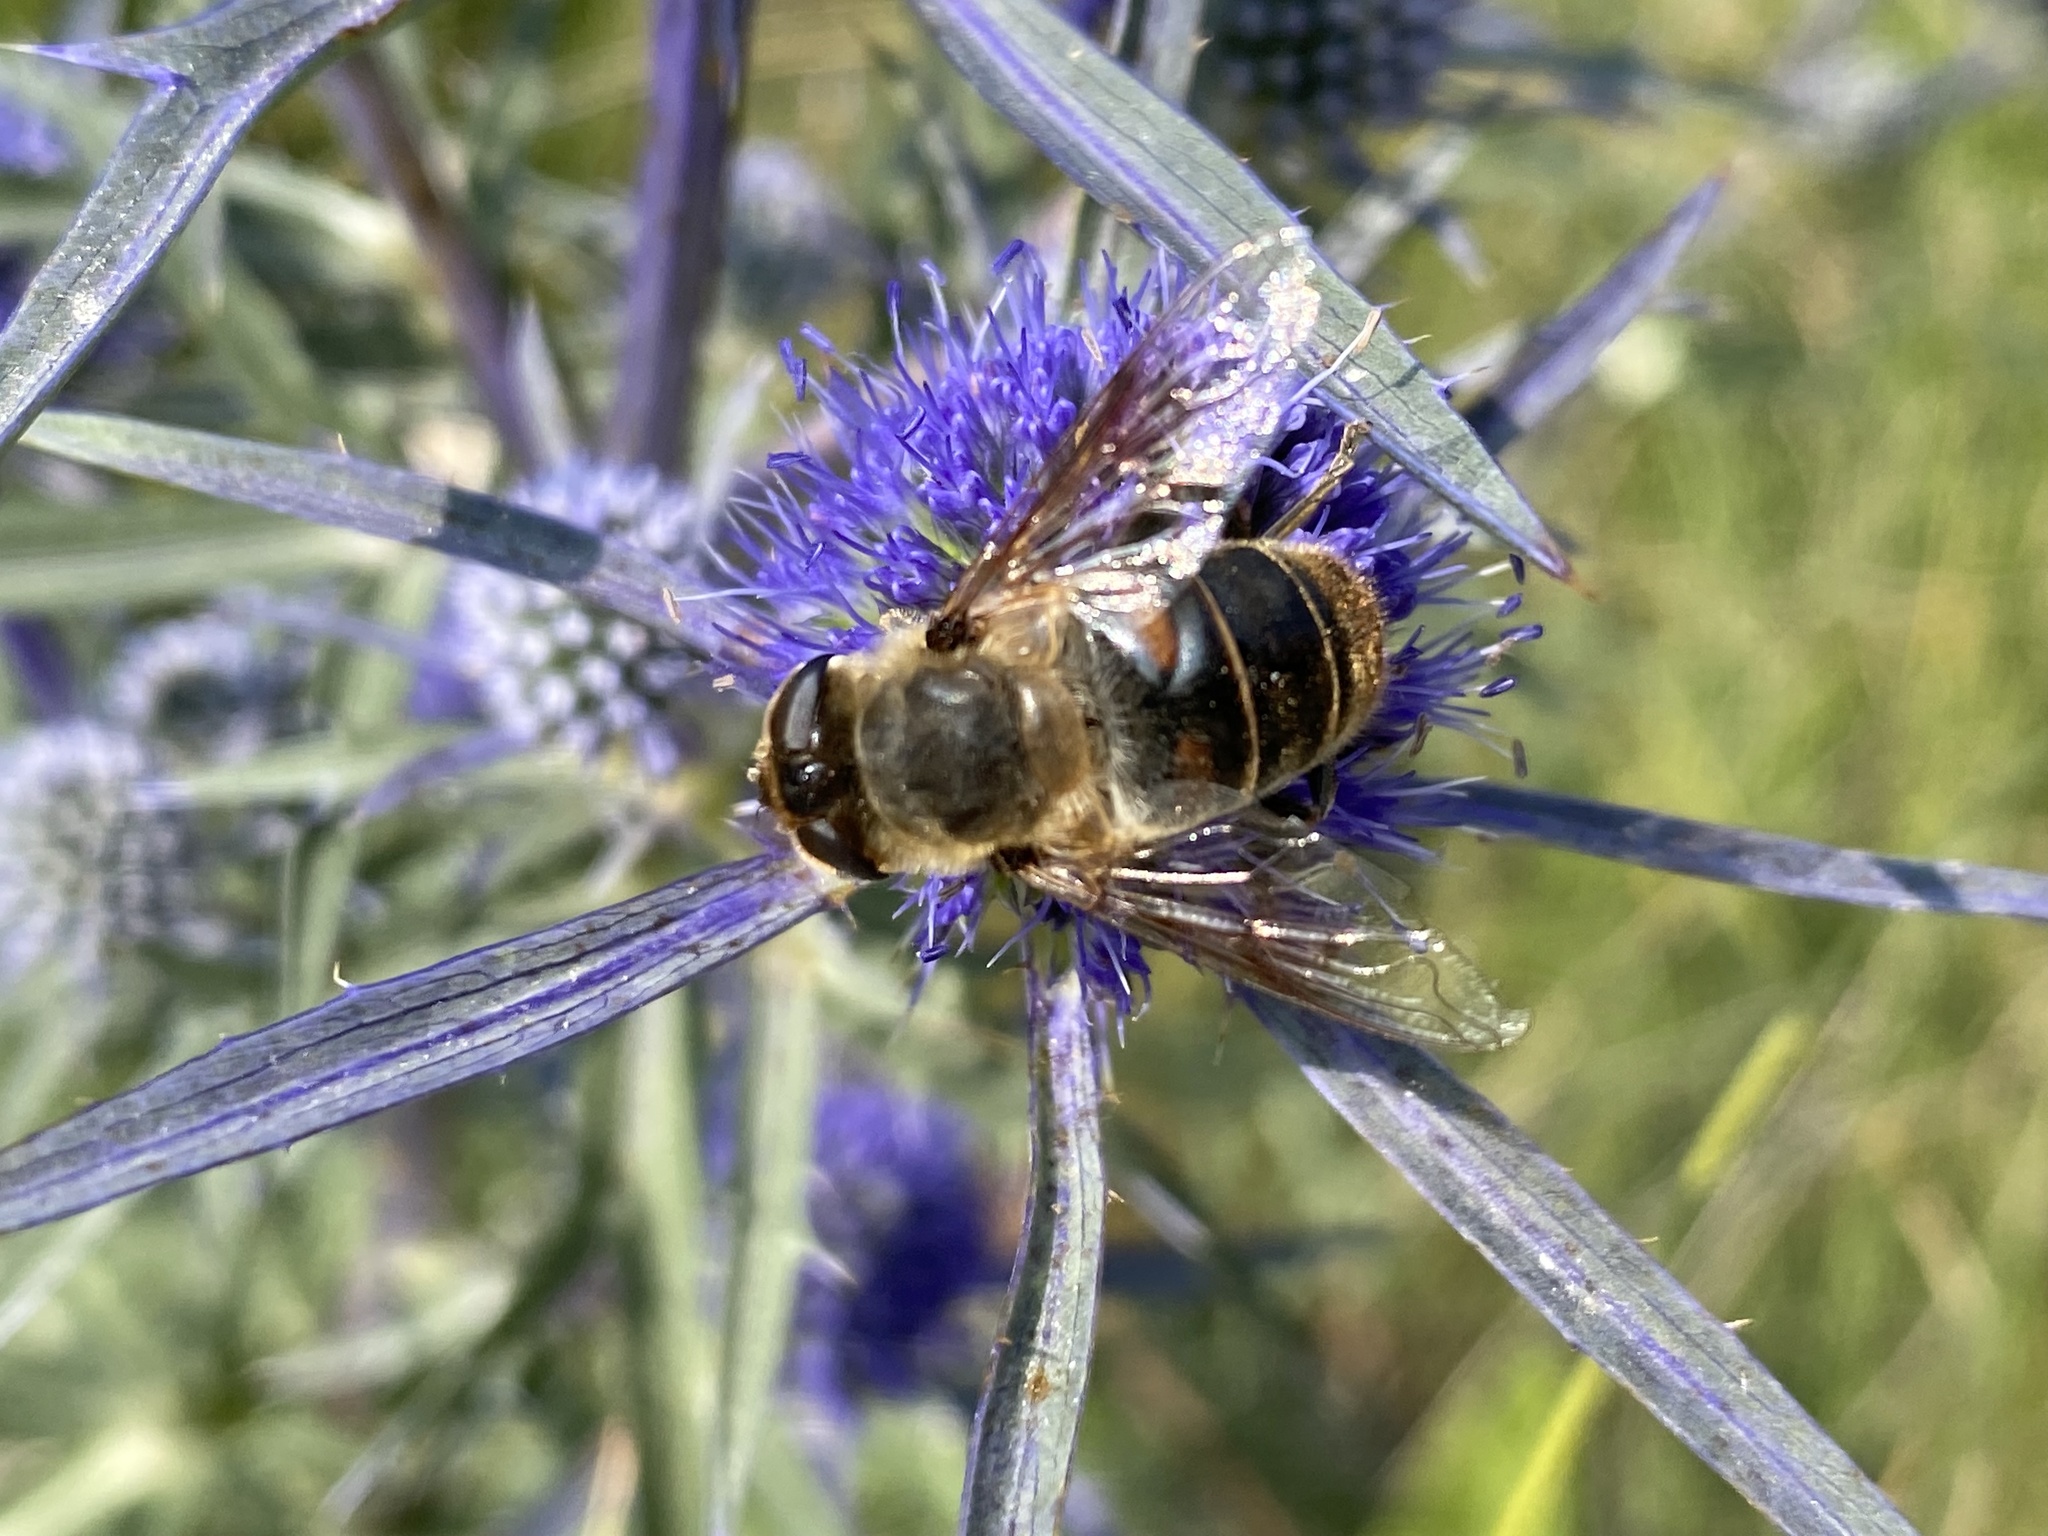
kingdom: Animalia
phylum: Arthropoda
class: Insecta
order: Diptera
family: Syrphidae
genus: Eristalis
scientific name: Eristalis tenax
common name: Drone fly
